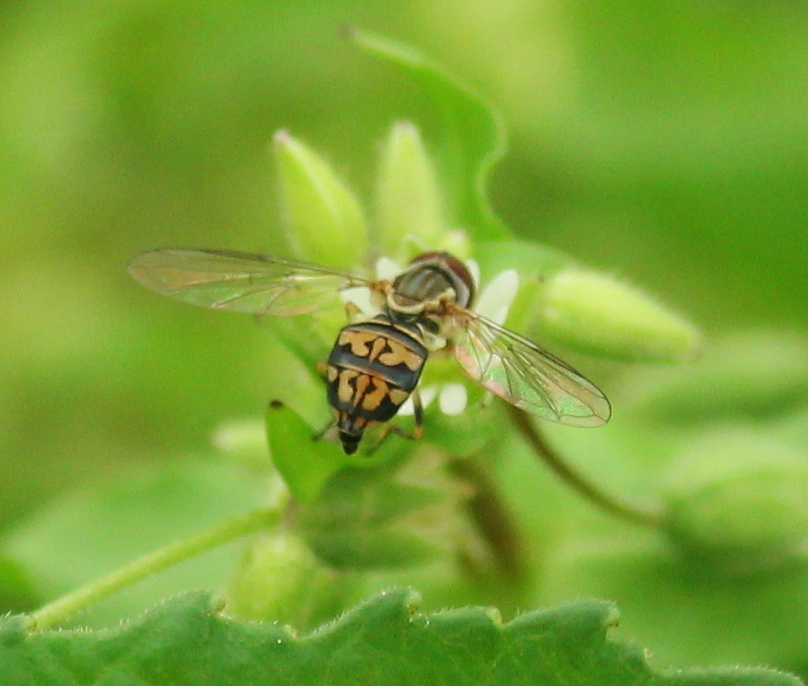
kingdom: Animalia
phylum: Arthropoda
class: Insecta
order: Diptera
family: Syrphidae
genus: Toxomerus
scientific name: Toxomerus geminatus
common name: Eastern calligrapher
